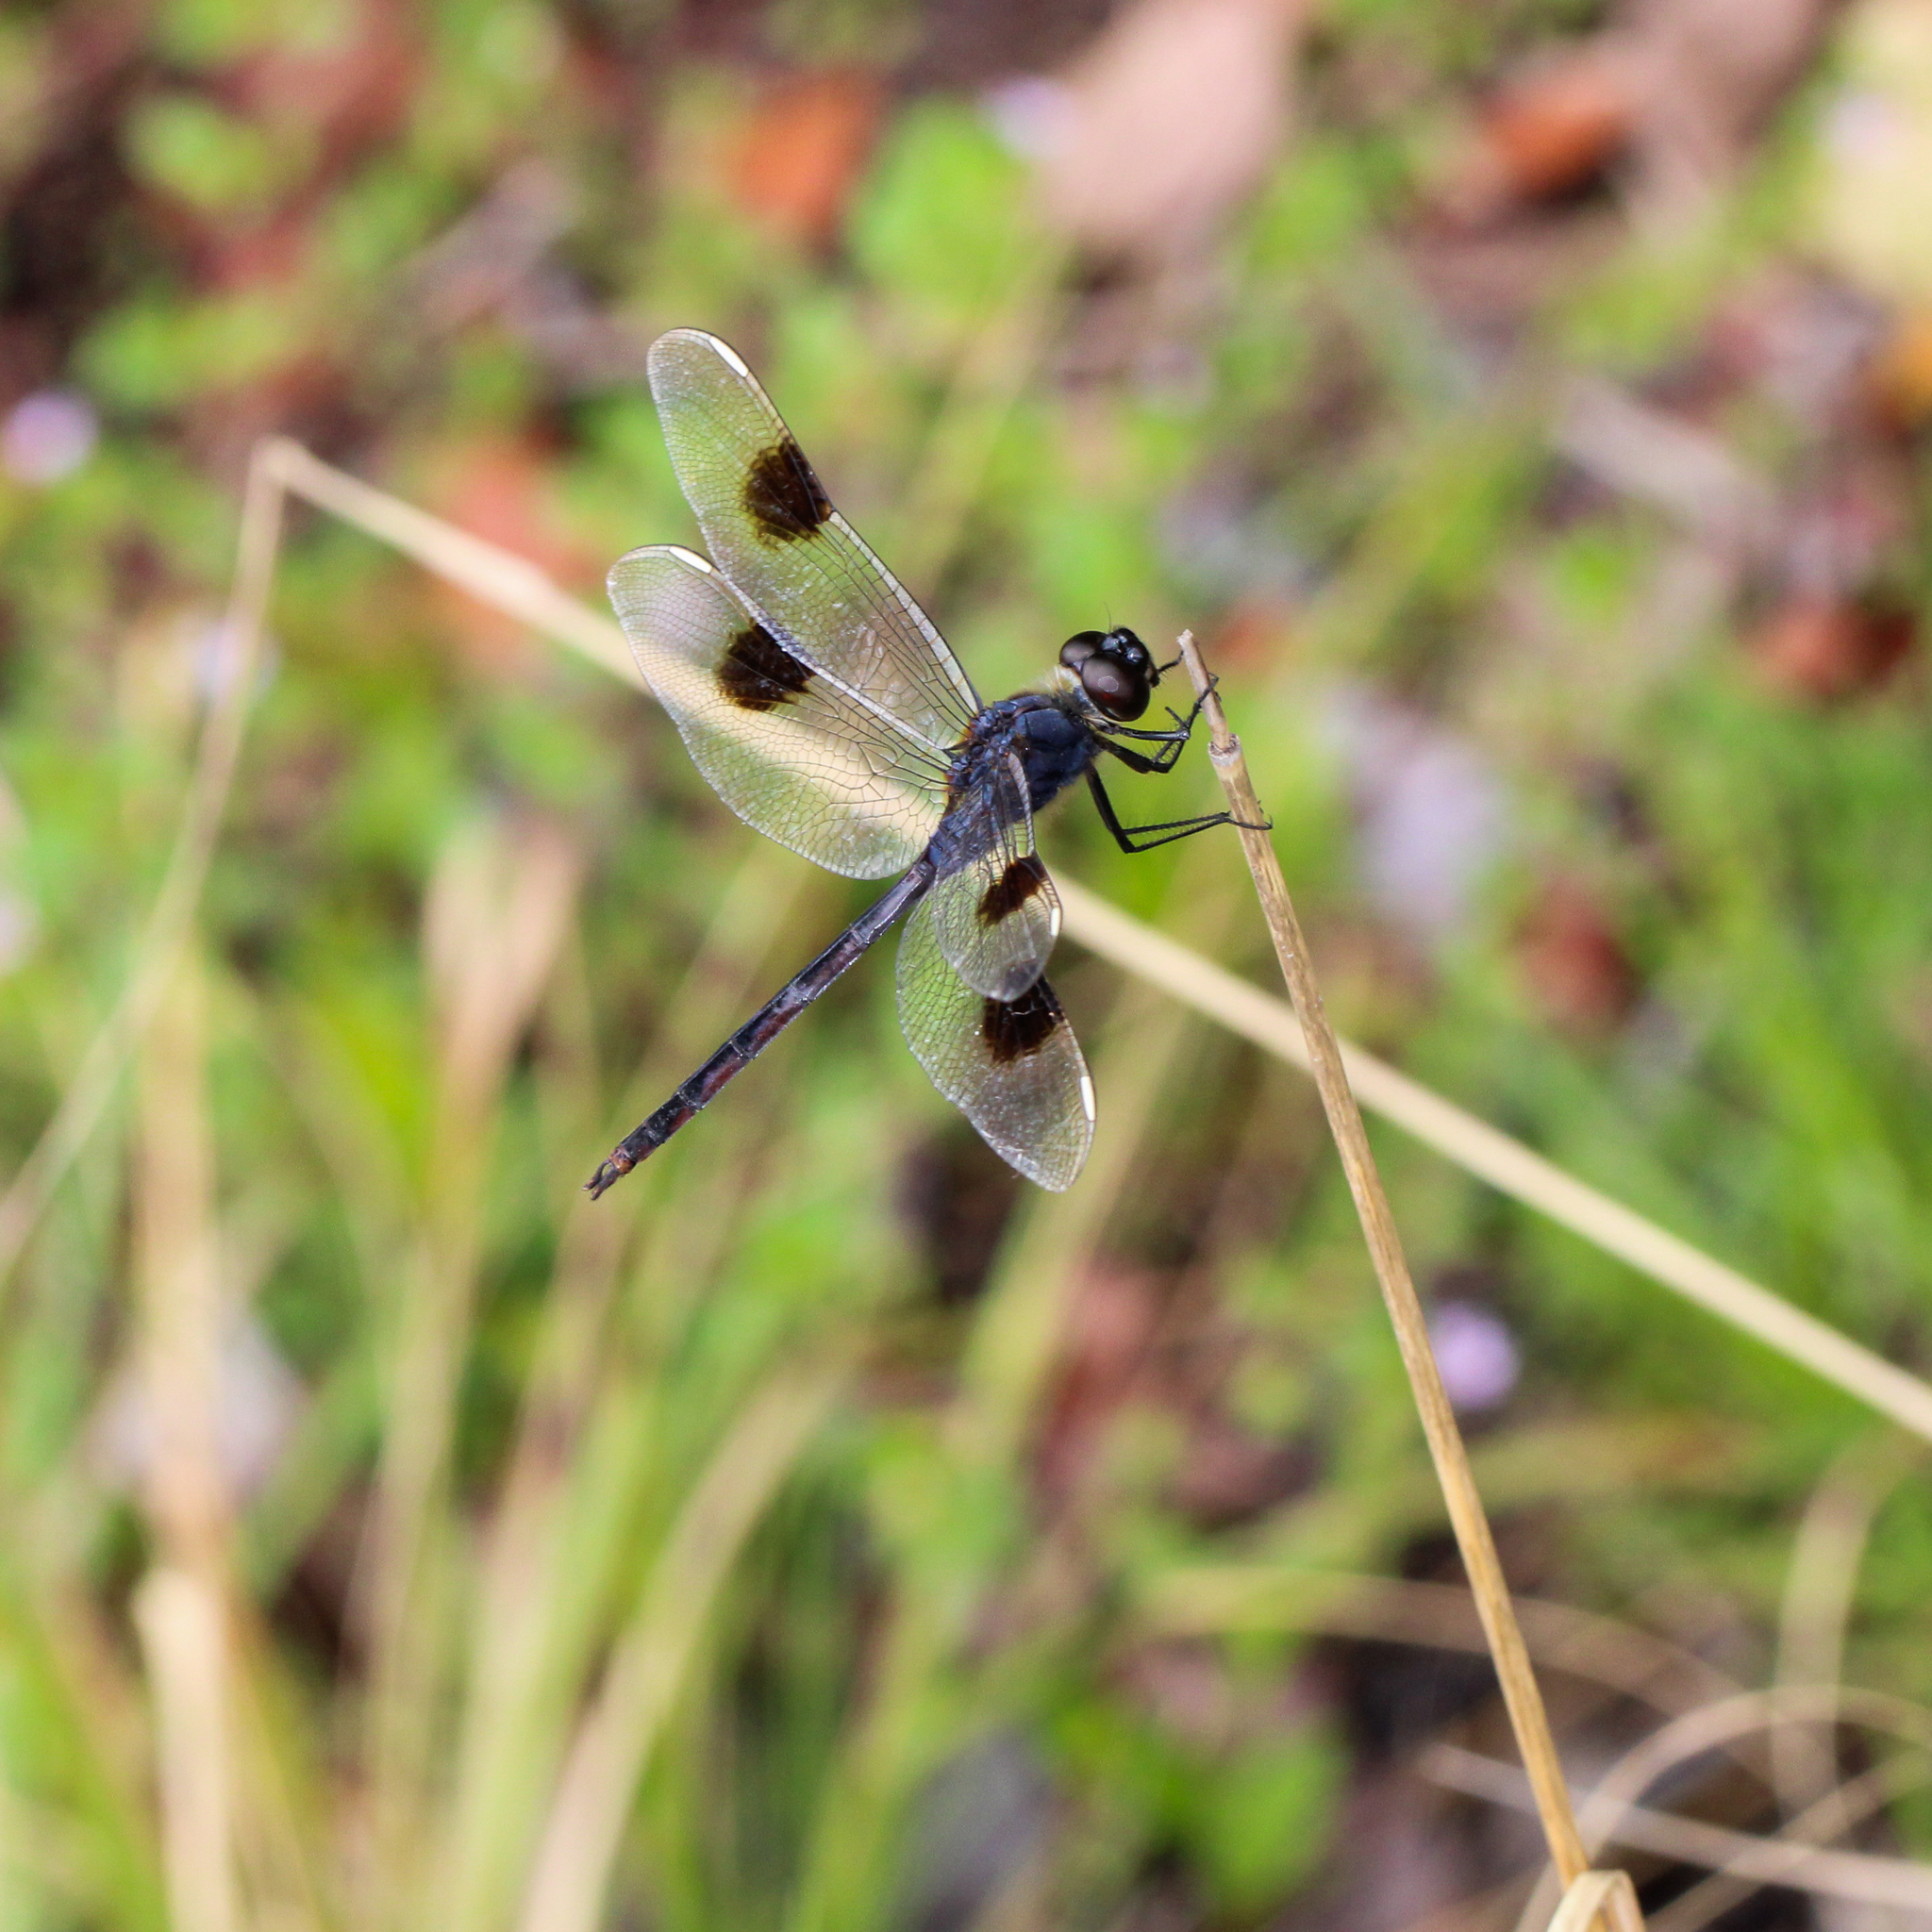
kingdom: Animalia
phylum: Arthropoda
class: Insecta
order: Odonata
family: Libellulidae
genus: Brachymesia
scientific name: Brachymesia gravida
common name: Four-spotted pennant
